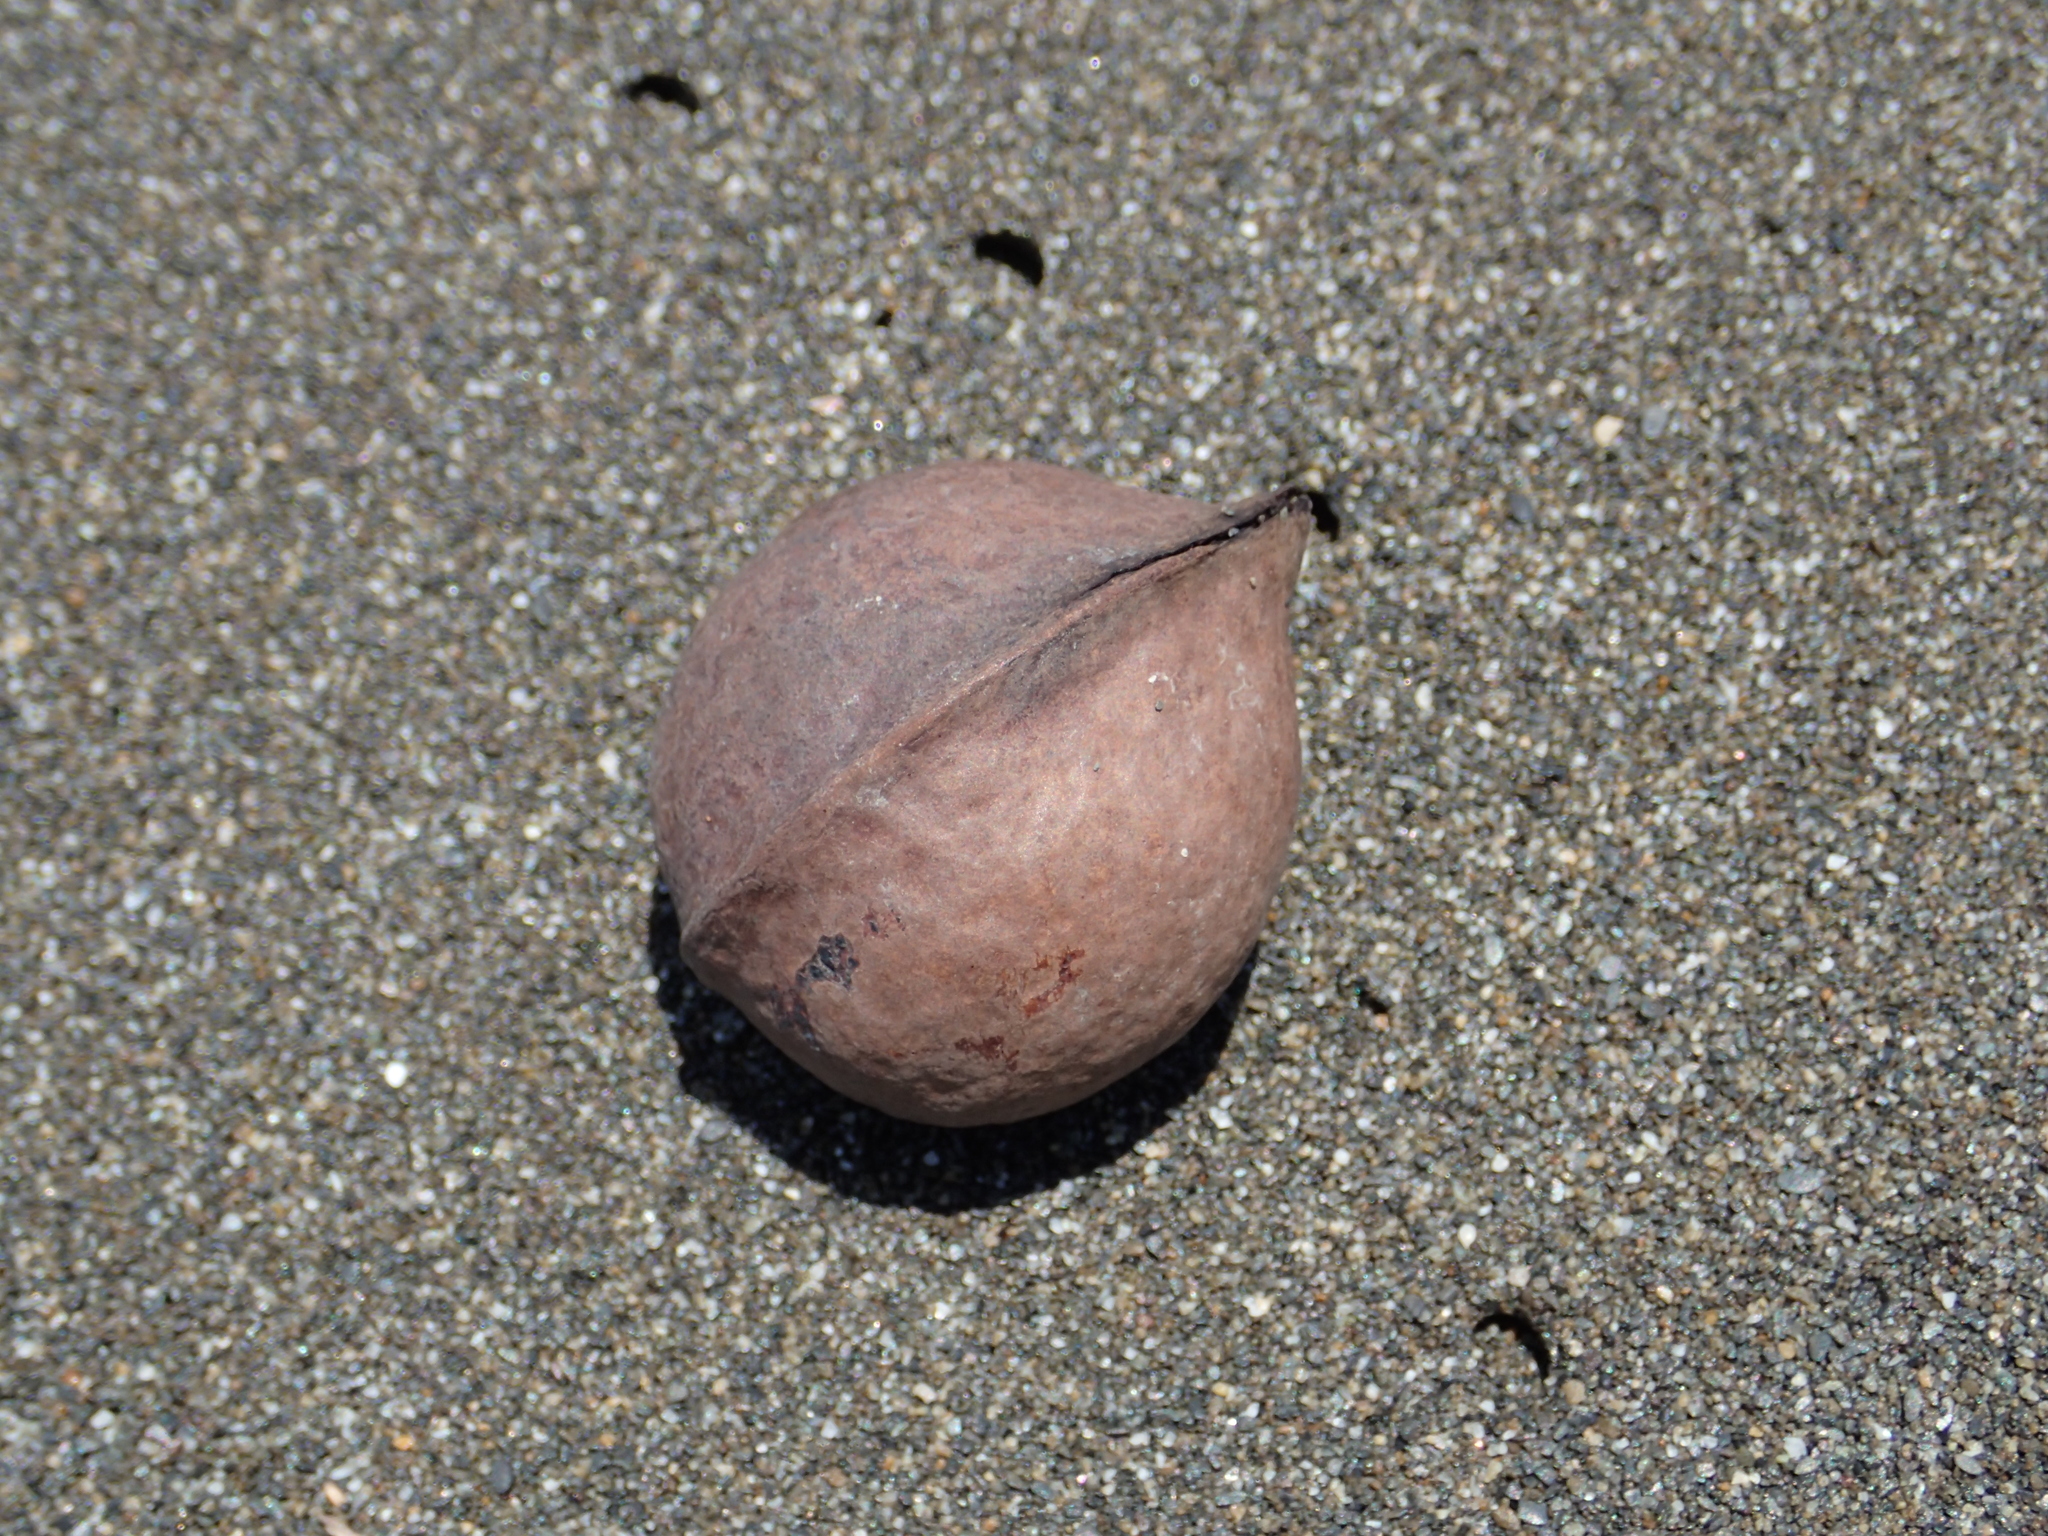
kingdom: Plantae
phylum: Tracheophyta
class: Magnoliopsida
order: Malvales
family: Malvaceae
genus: Heritiera
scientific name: Heritiera littoralis
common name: Looking-glass mangrove
